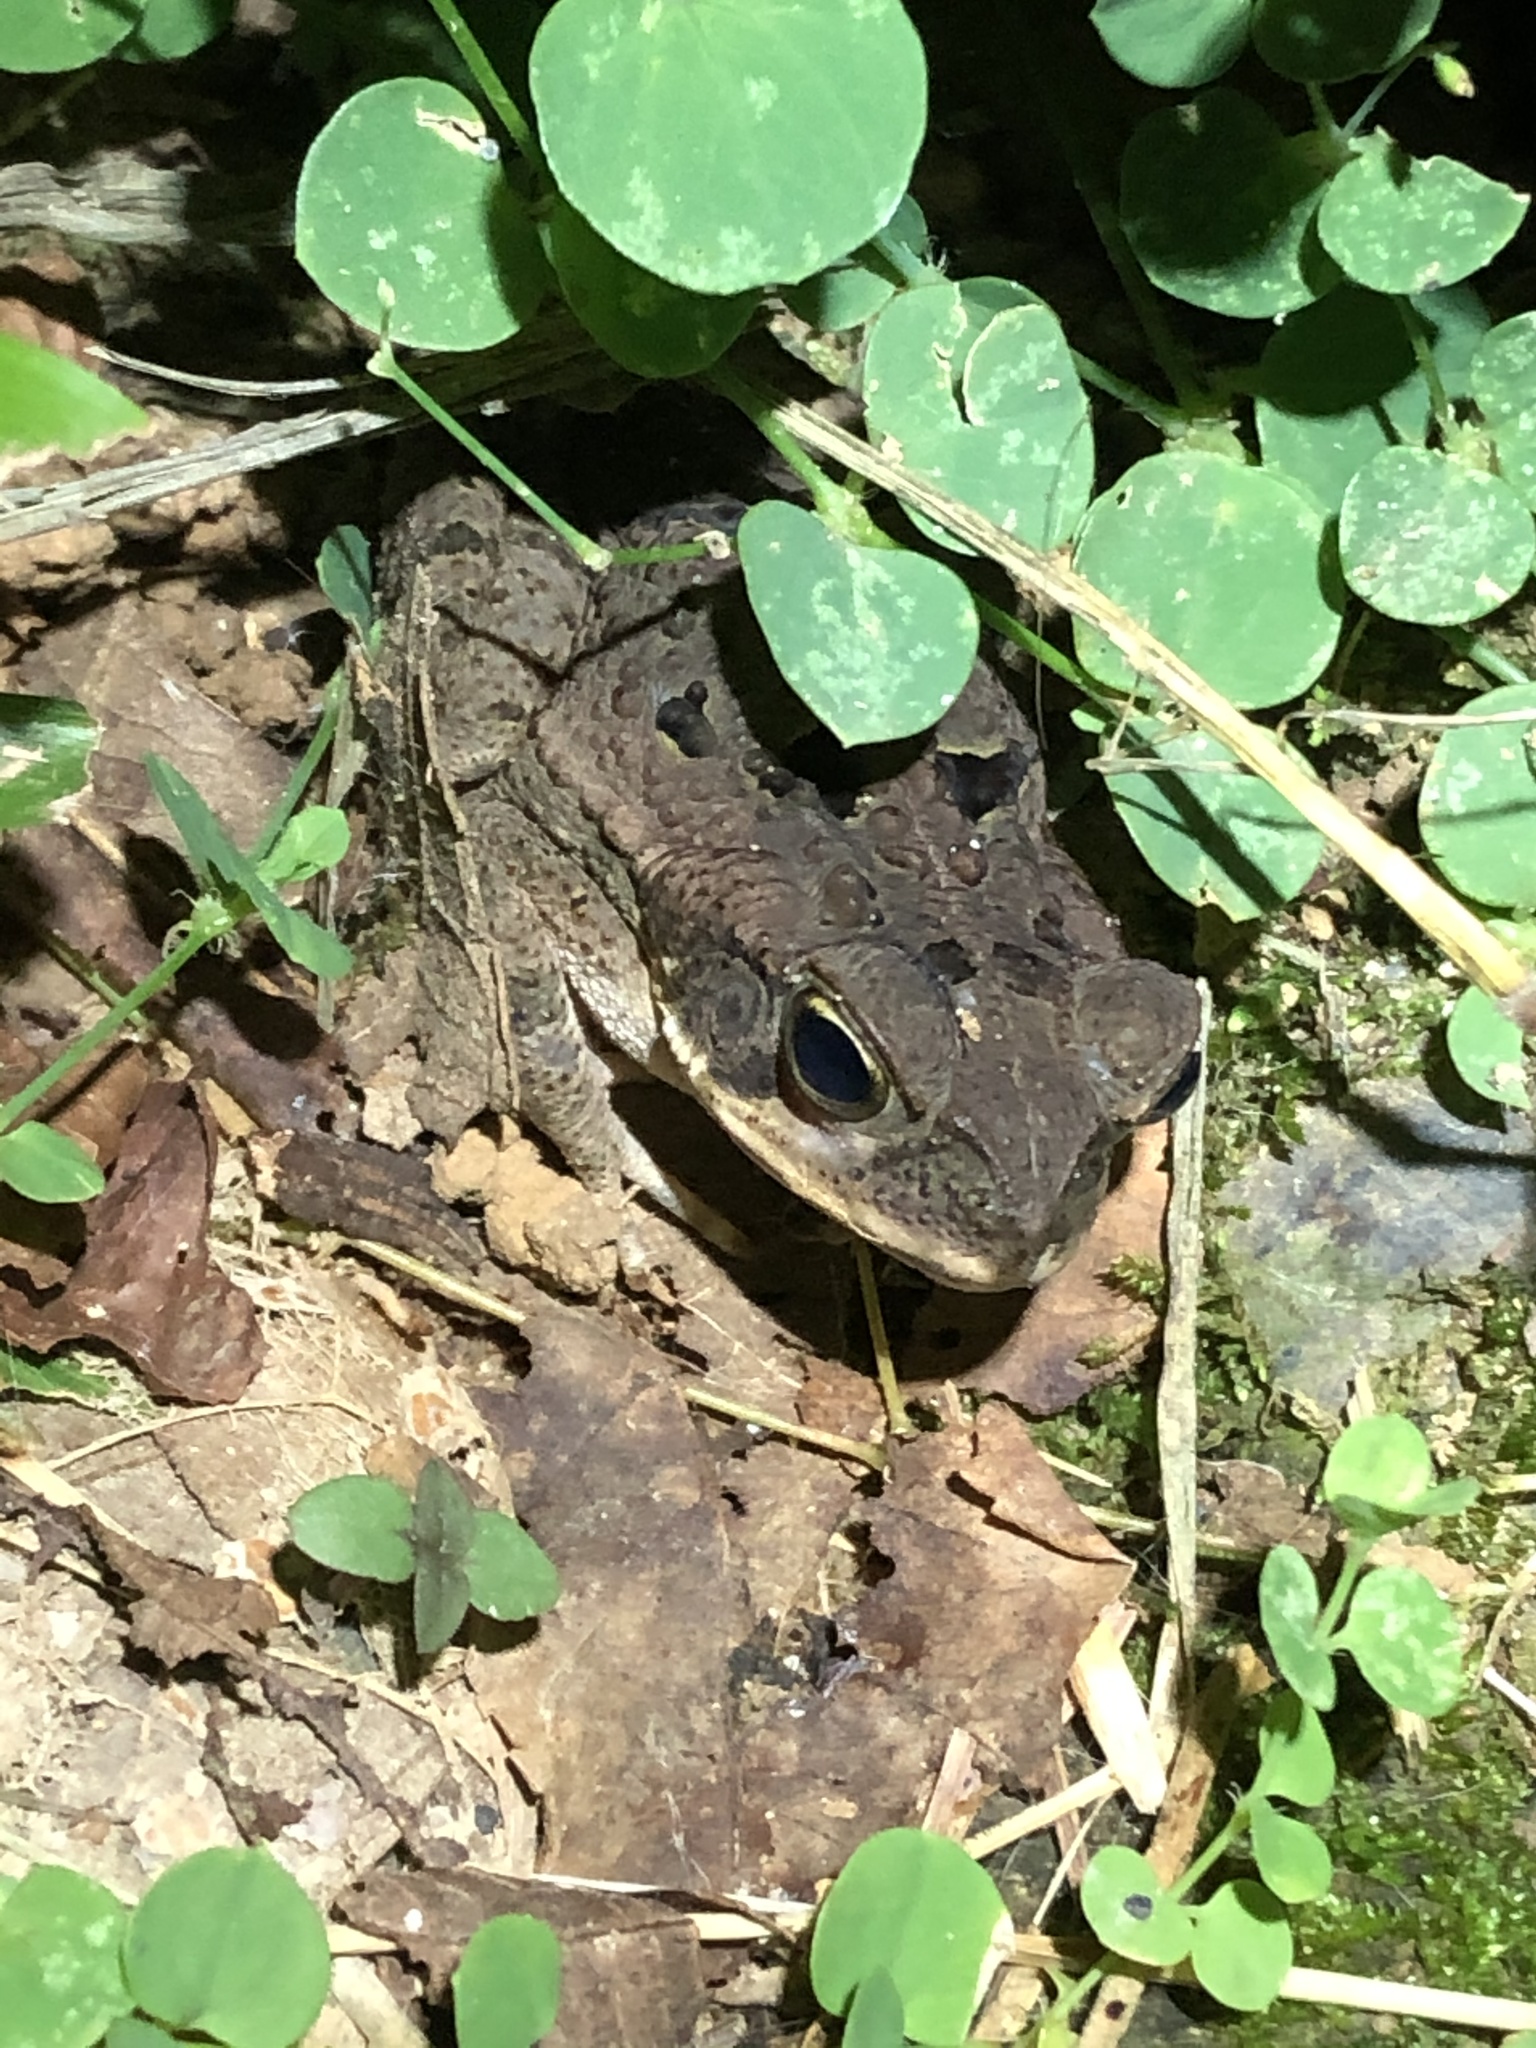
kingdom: Animalia
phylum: Chordata
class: Amphibia
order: Anura
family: Bufonidae
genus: Rhinella
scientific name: Rhinella marina
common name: Cane toad
